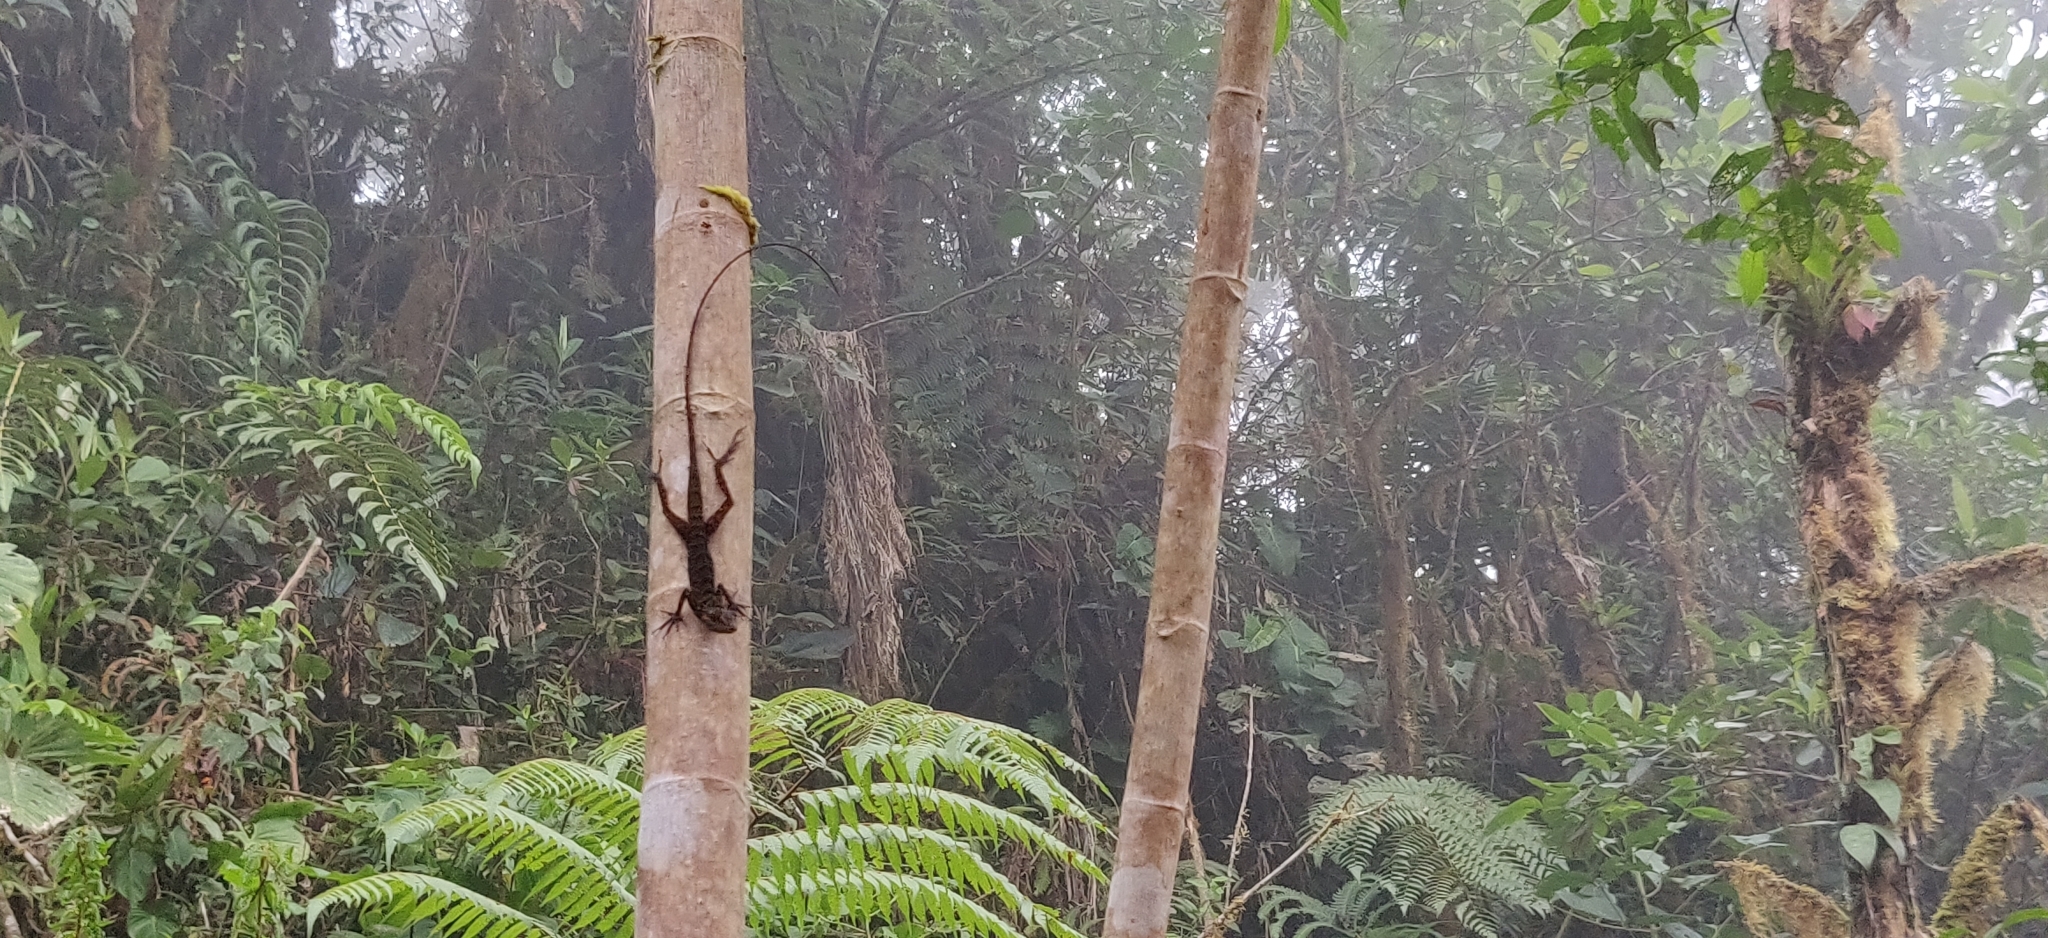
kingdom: Animalia
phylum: Chordata
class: Squamata
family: Dactyloidae
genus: Anolis
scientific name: Anolis ventrimaculatus
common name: Speckled anole
